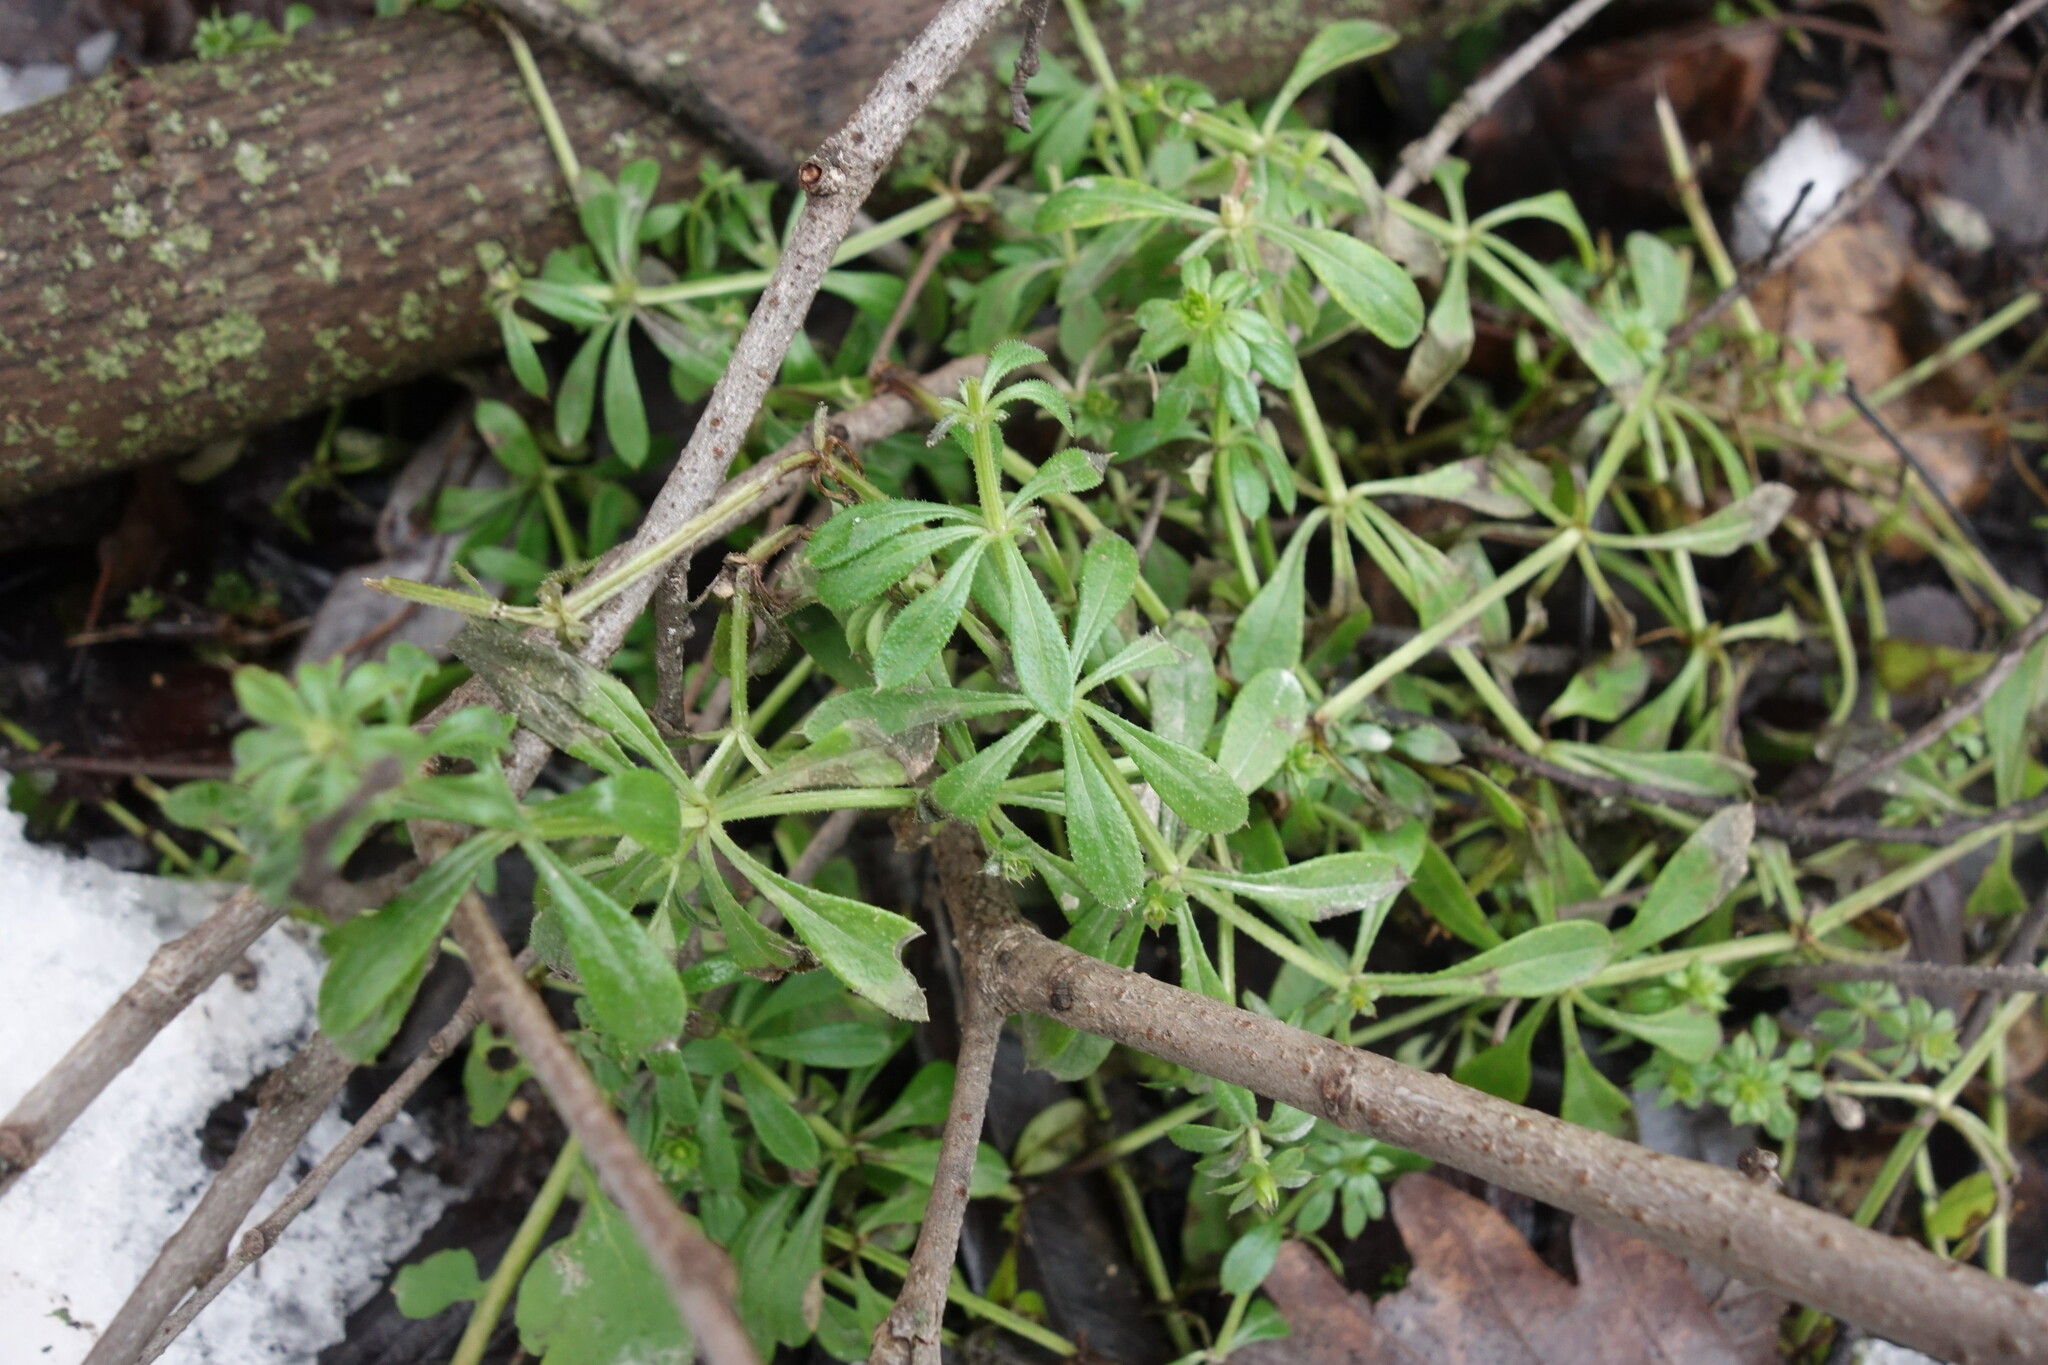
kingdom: Plantae
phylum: Tracheophyta
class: Magnoliopsida
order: Gentianales
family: Rubiaceae
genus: Galium
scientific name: Galium aparine
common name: Cleavers
